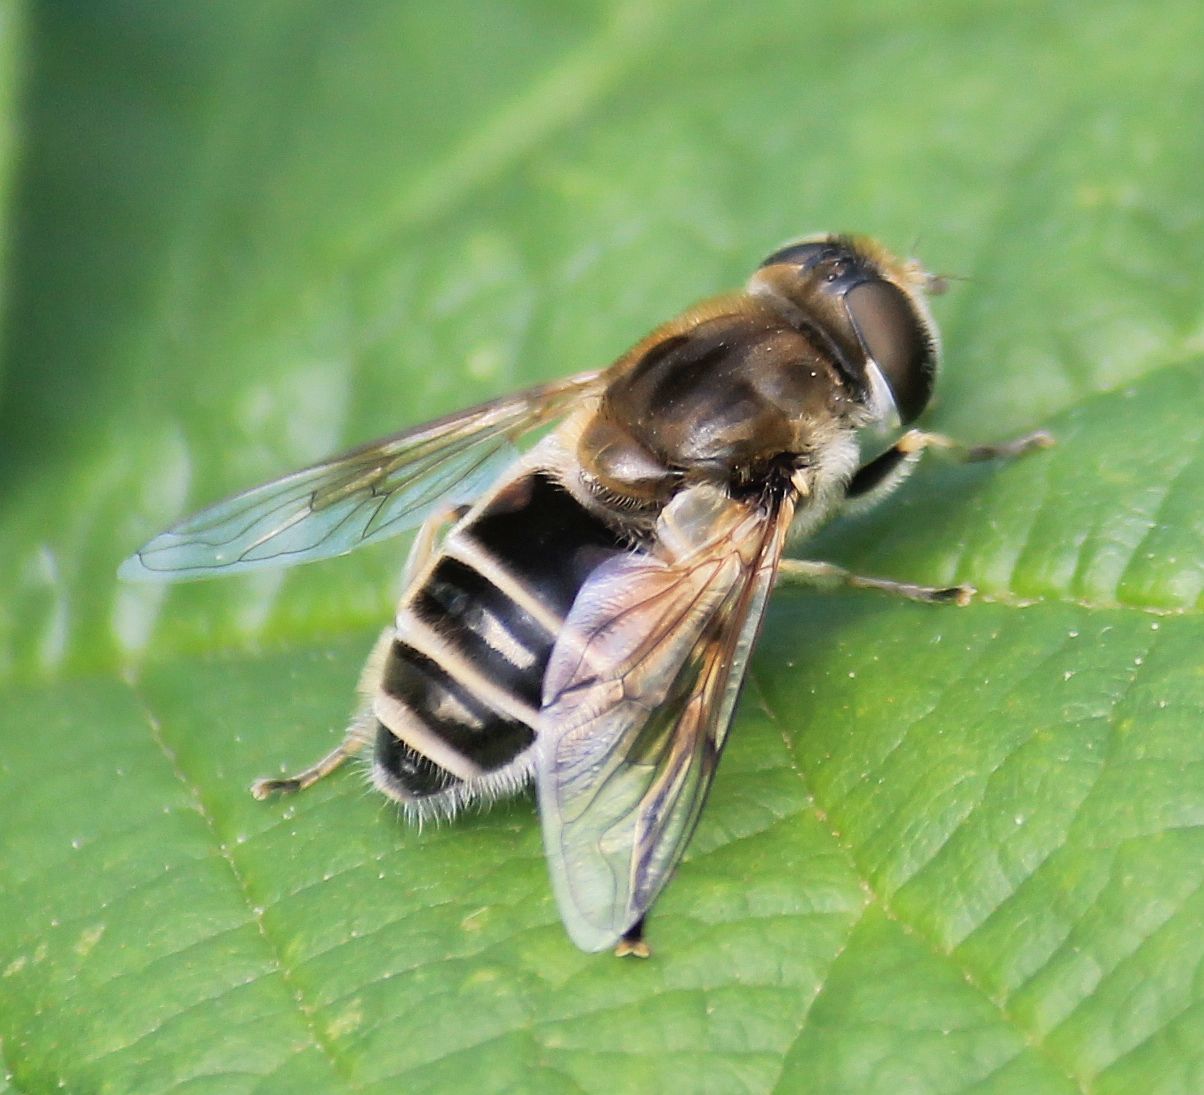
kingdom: Animalia
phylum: Arthropoda
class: Insecta
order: Diptera
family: Syrphidae
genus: Eristalis
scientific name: Eristalis arbustorum
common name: Hover fly
